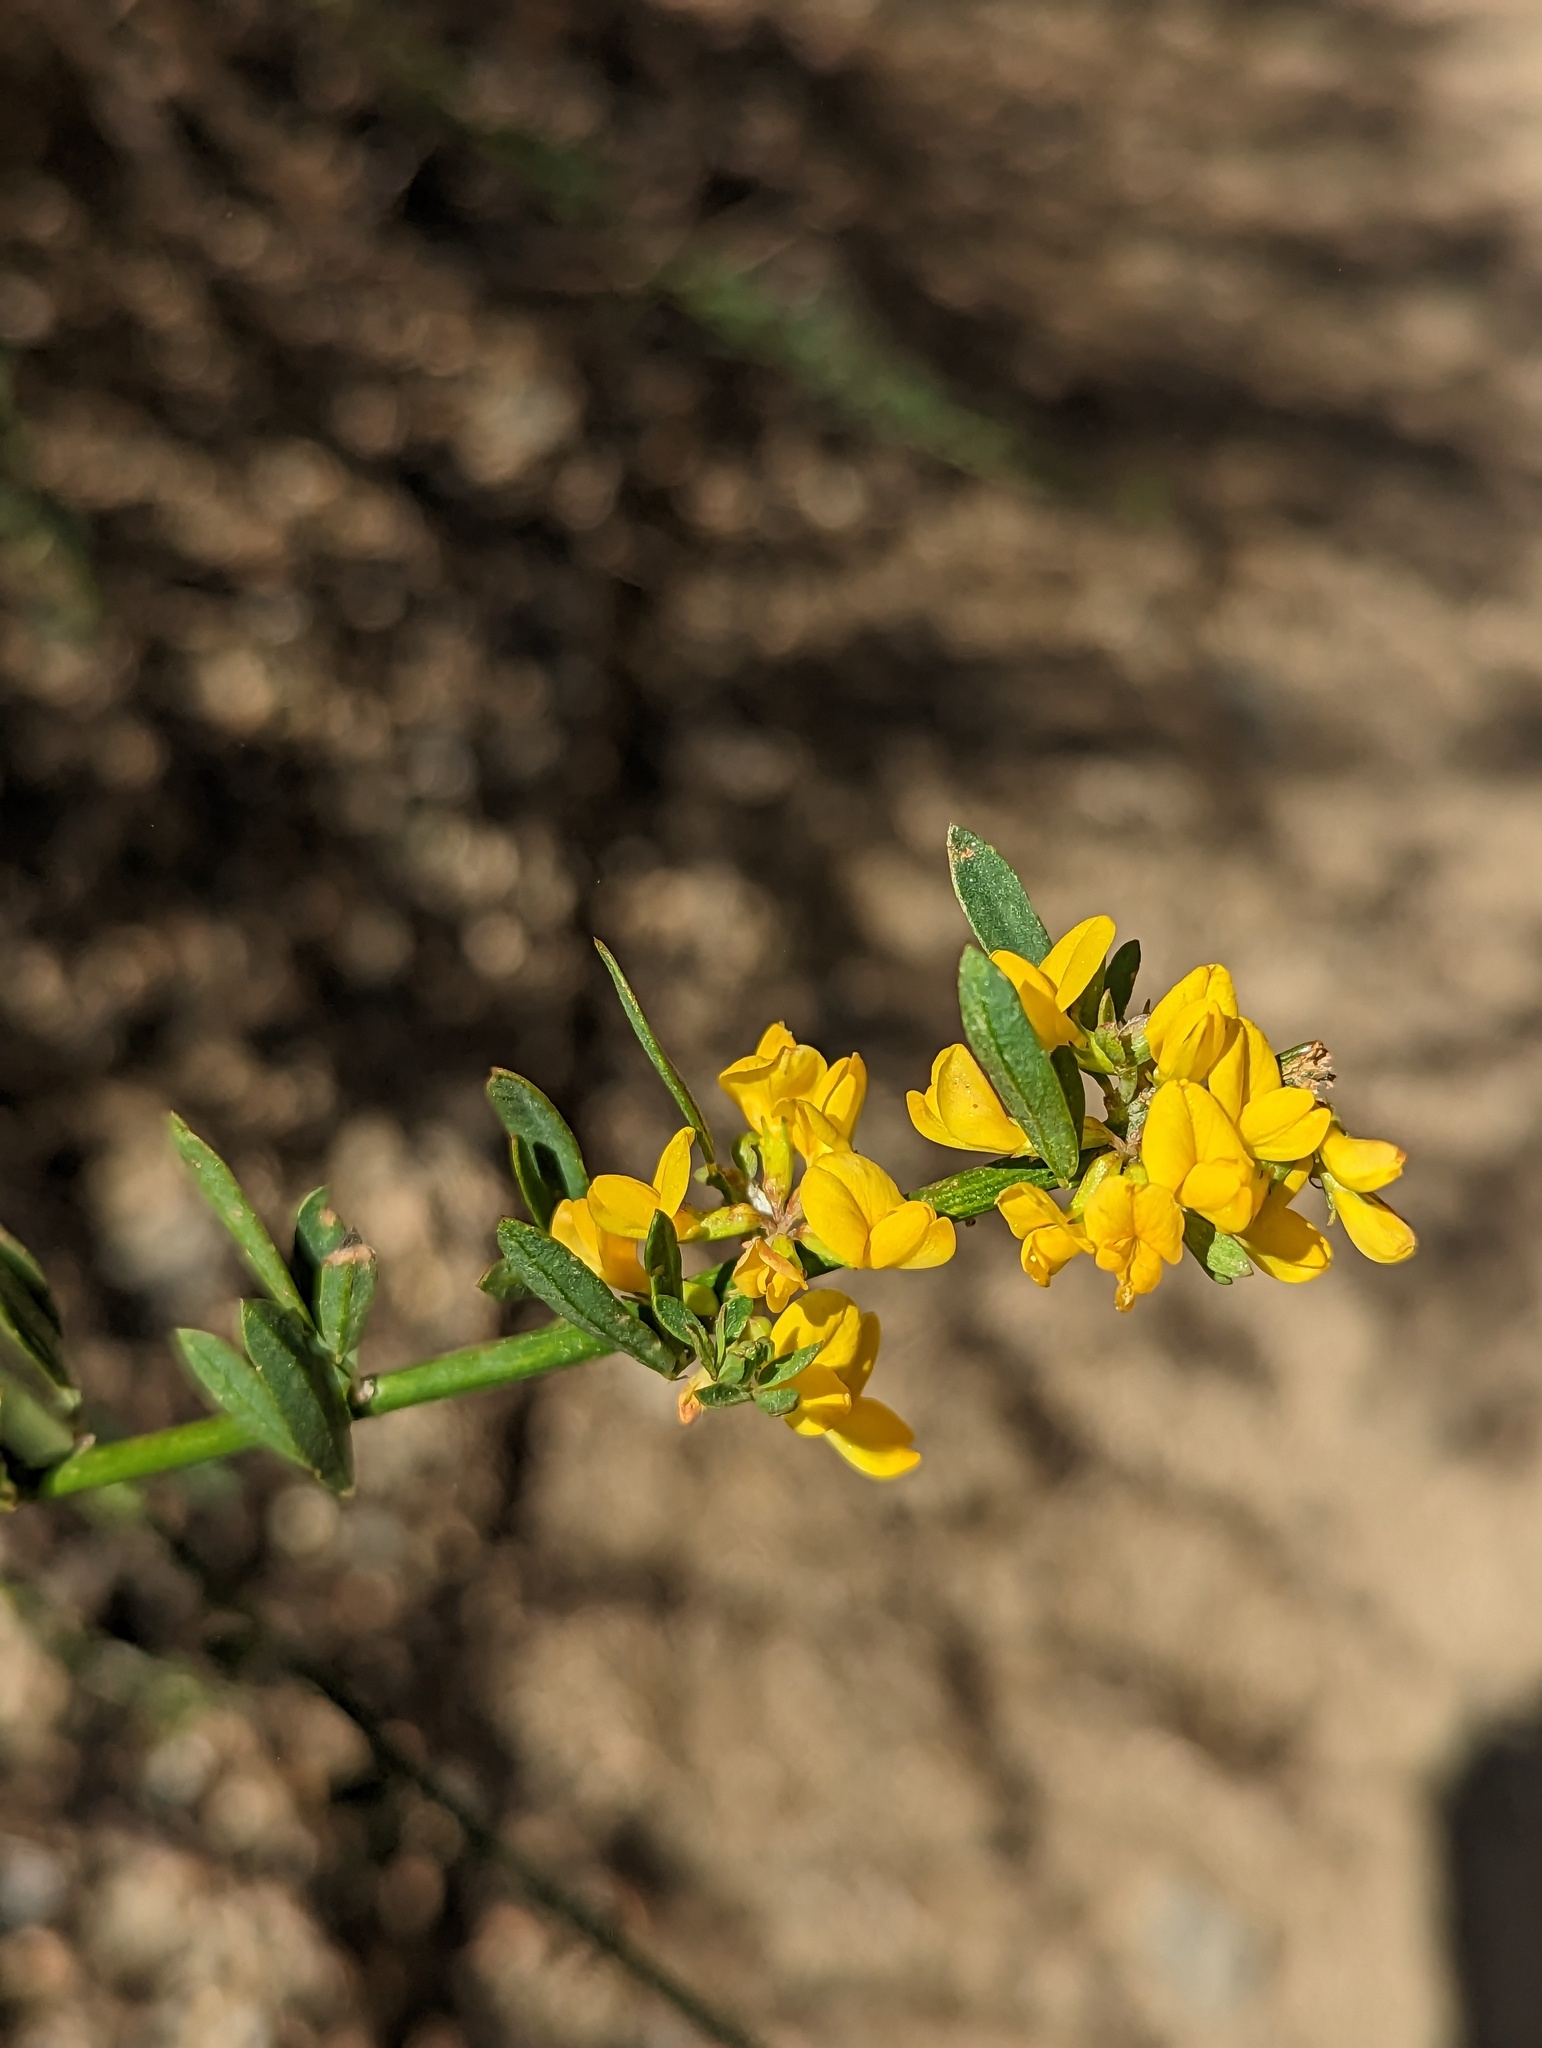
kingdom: Plantae
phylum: Tracheophyta
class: Magnoliopsida
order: Fabales
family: Fabaceae
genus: Acmispon
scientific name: Acmispon glaber
